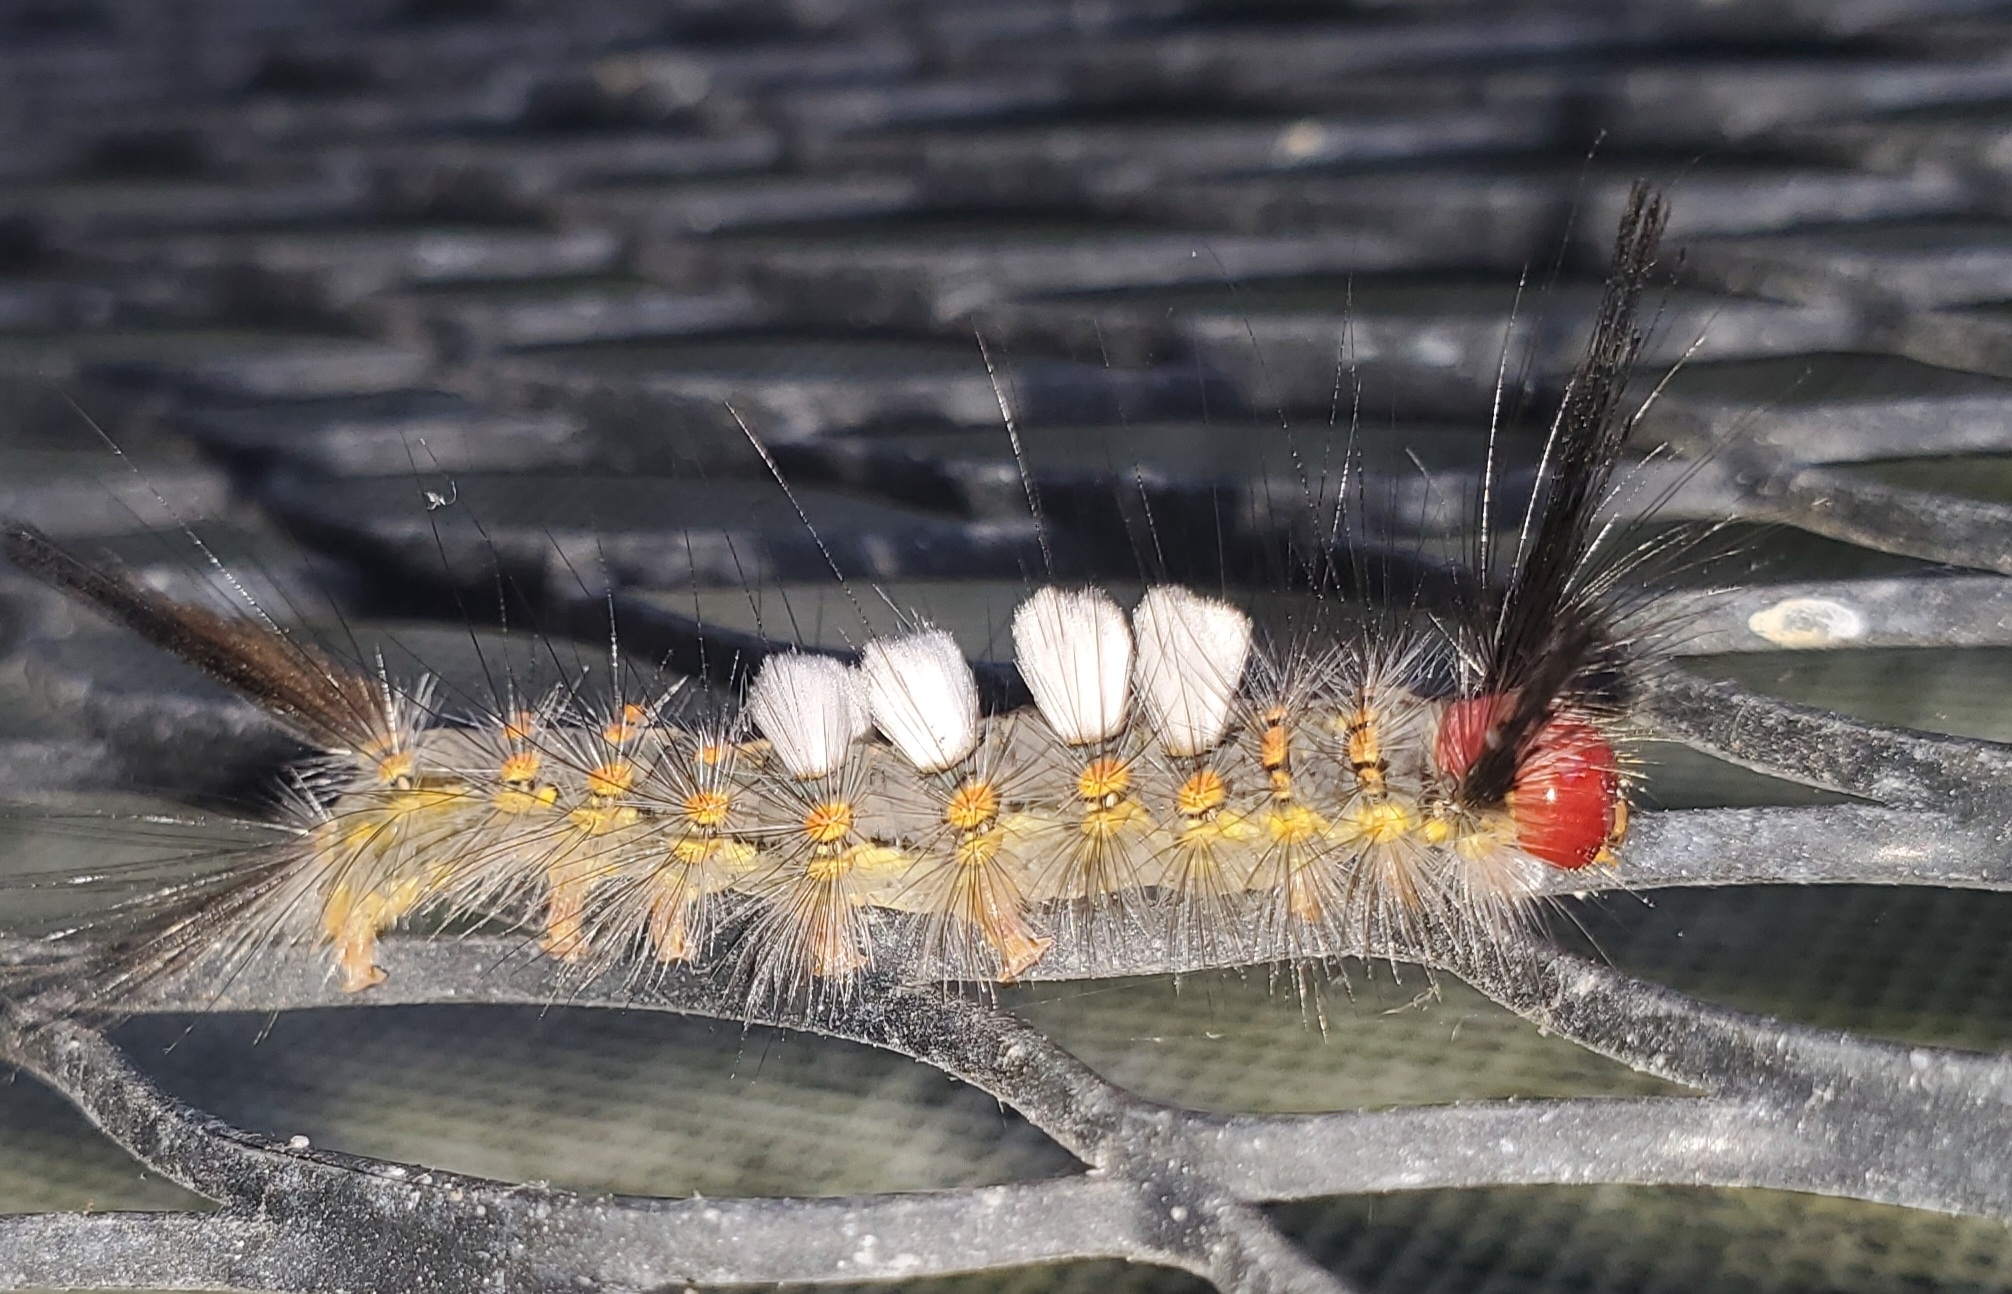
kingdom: Animalia
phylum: Arthropoda
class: Insecta
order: Lepidoptera
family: Erebidae
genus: Orgyia
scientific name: Orgyia detrita
